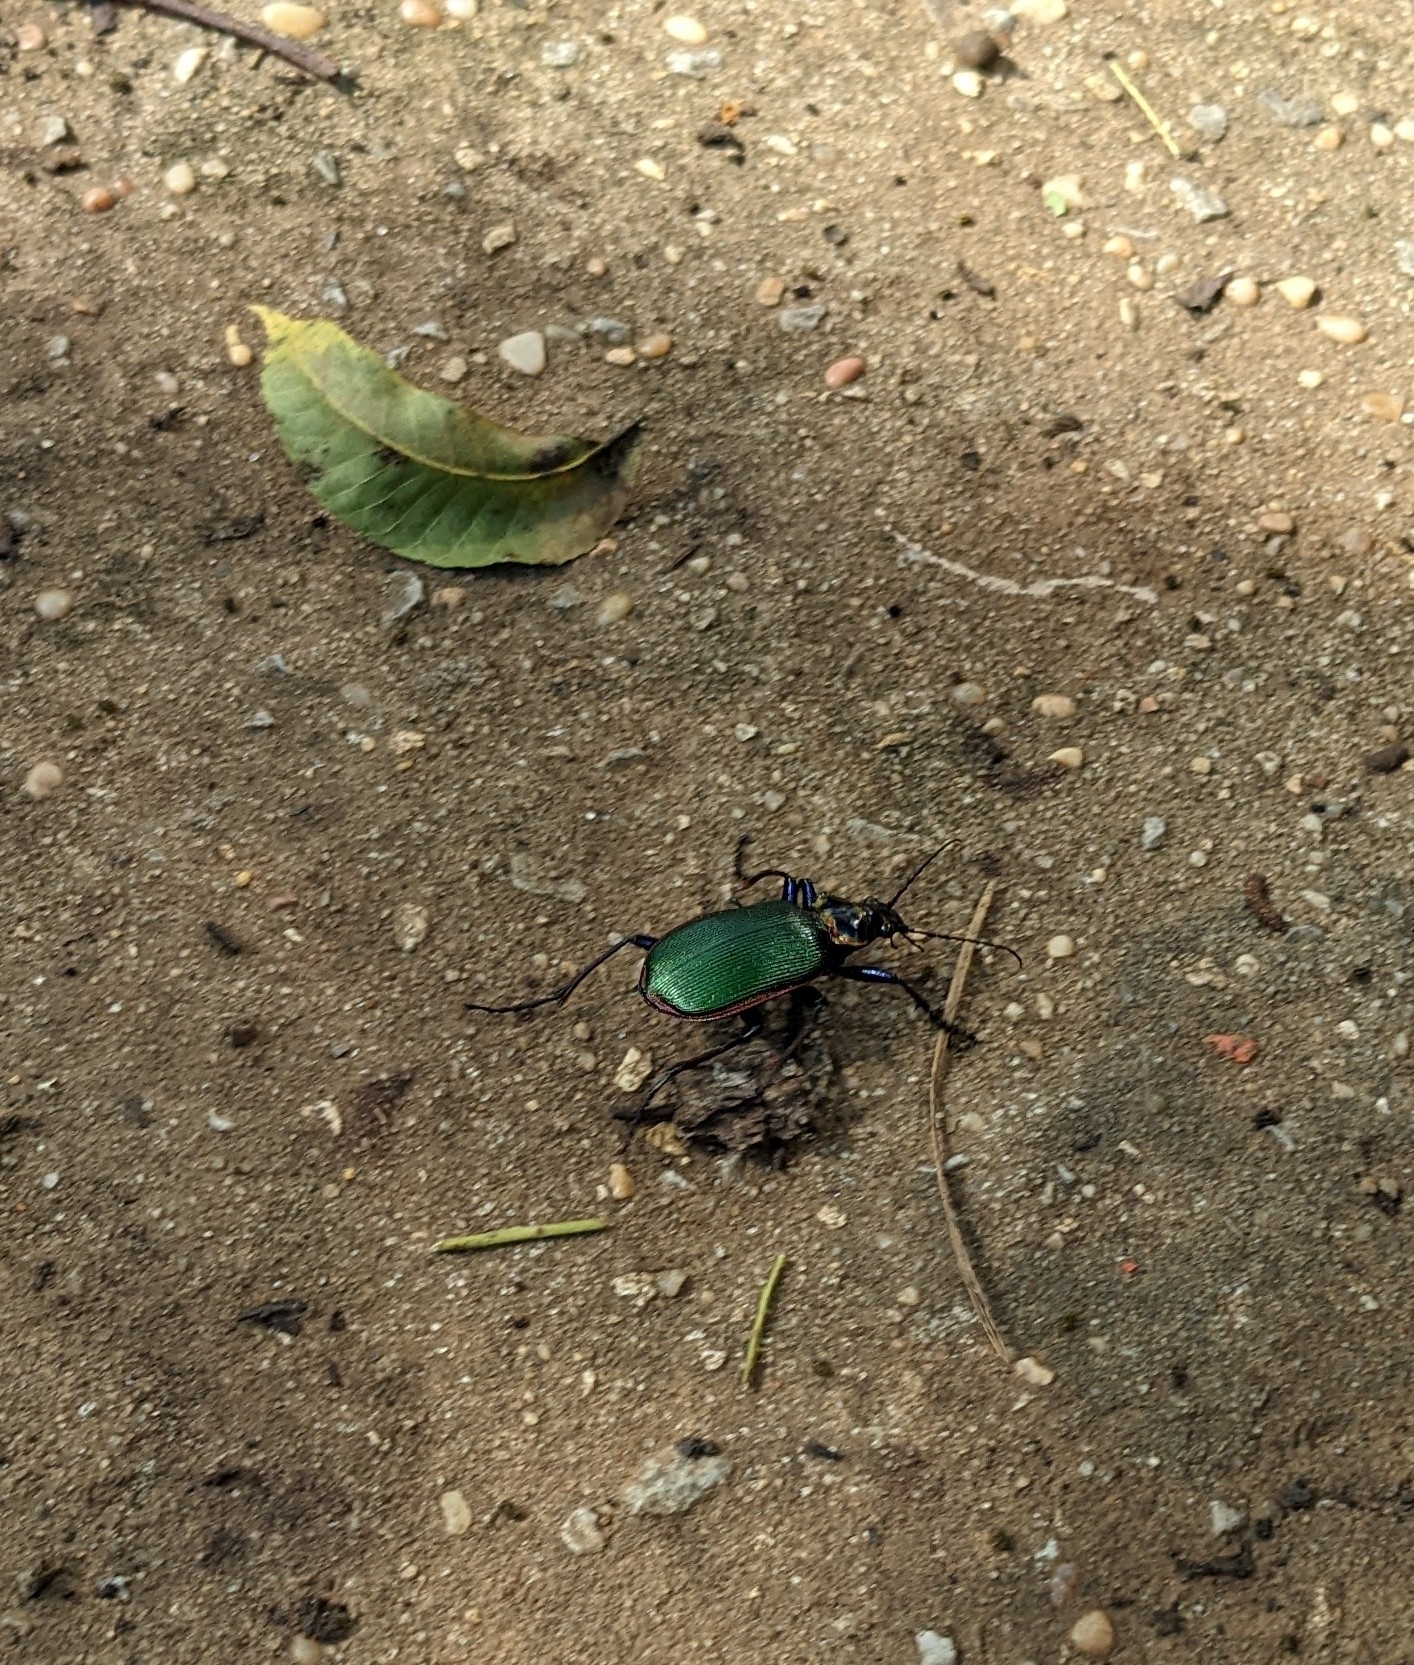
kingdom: Animalia
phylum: Arthropoda
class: Insecta
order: Coleoptera
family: Carabidae
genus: Calosoma
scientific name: Calosoma scrutator
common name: Fiery searcher beetle
